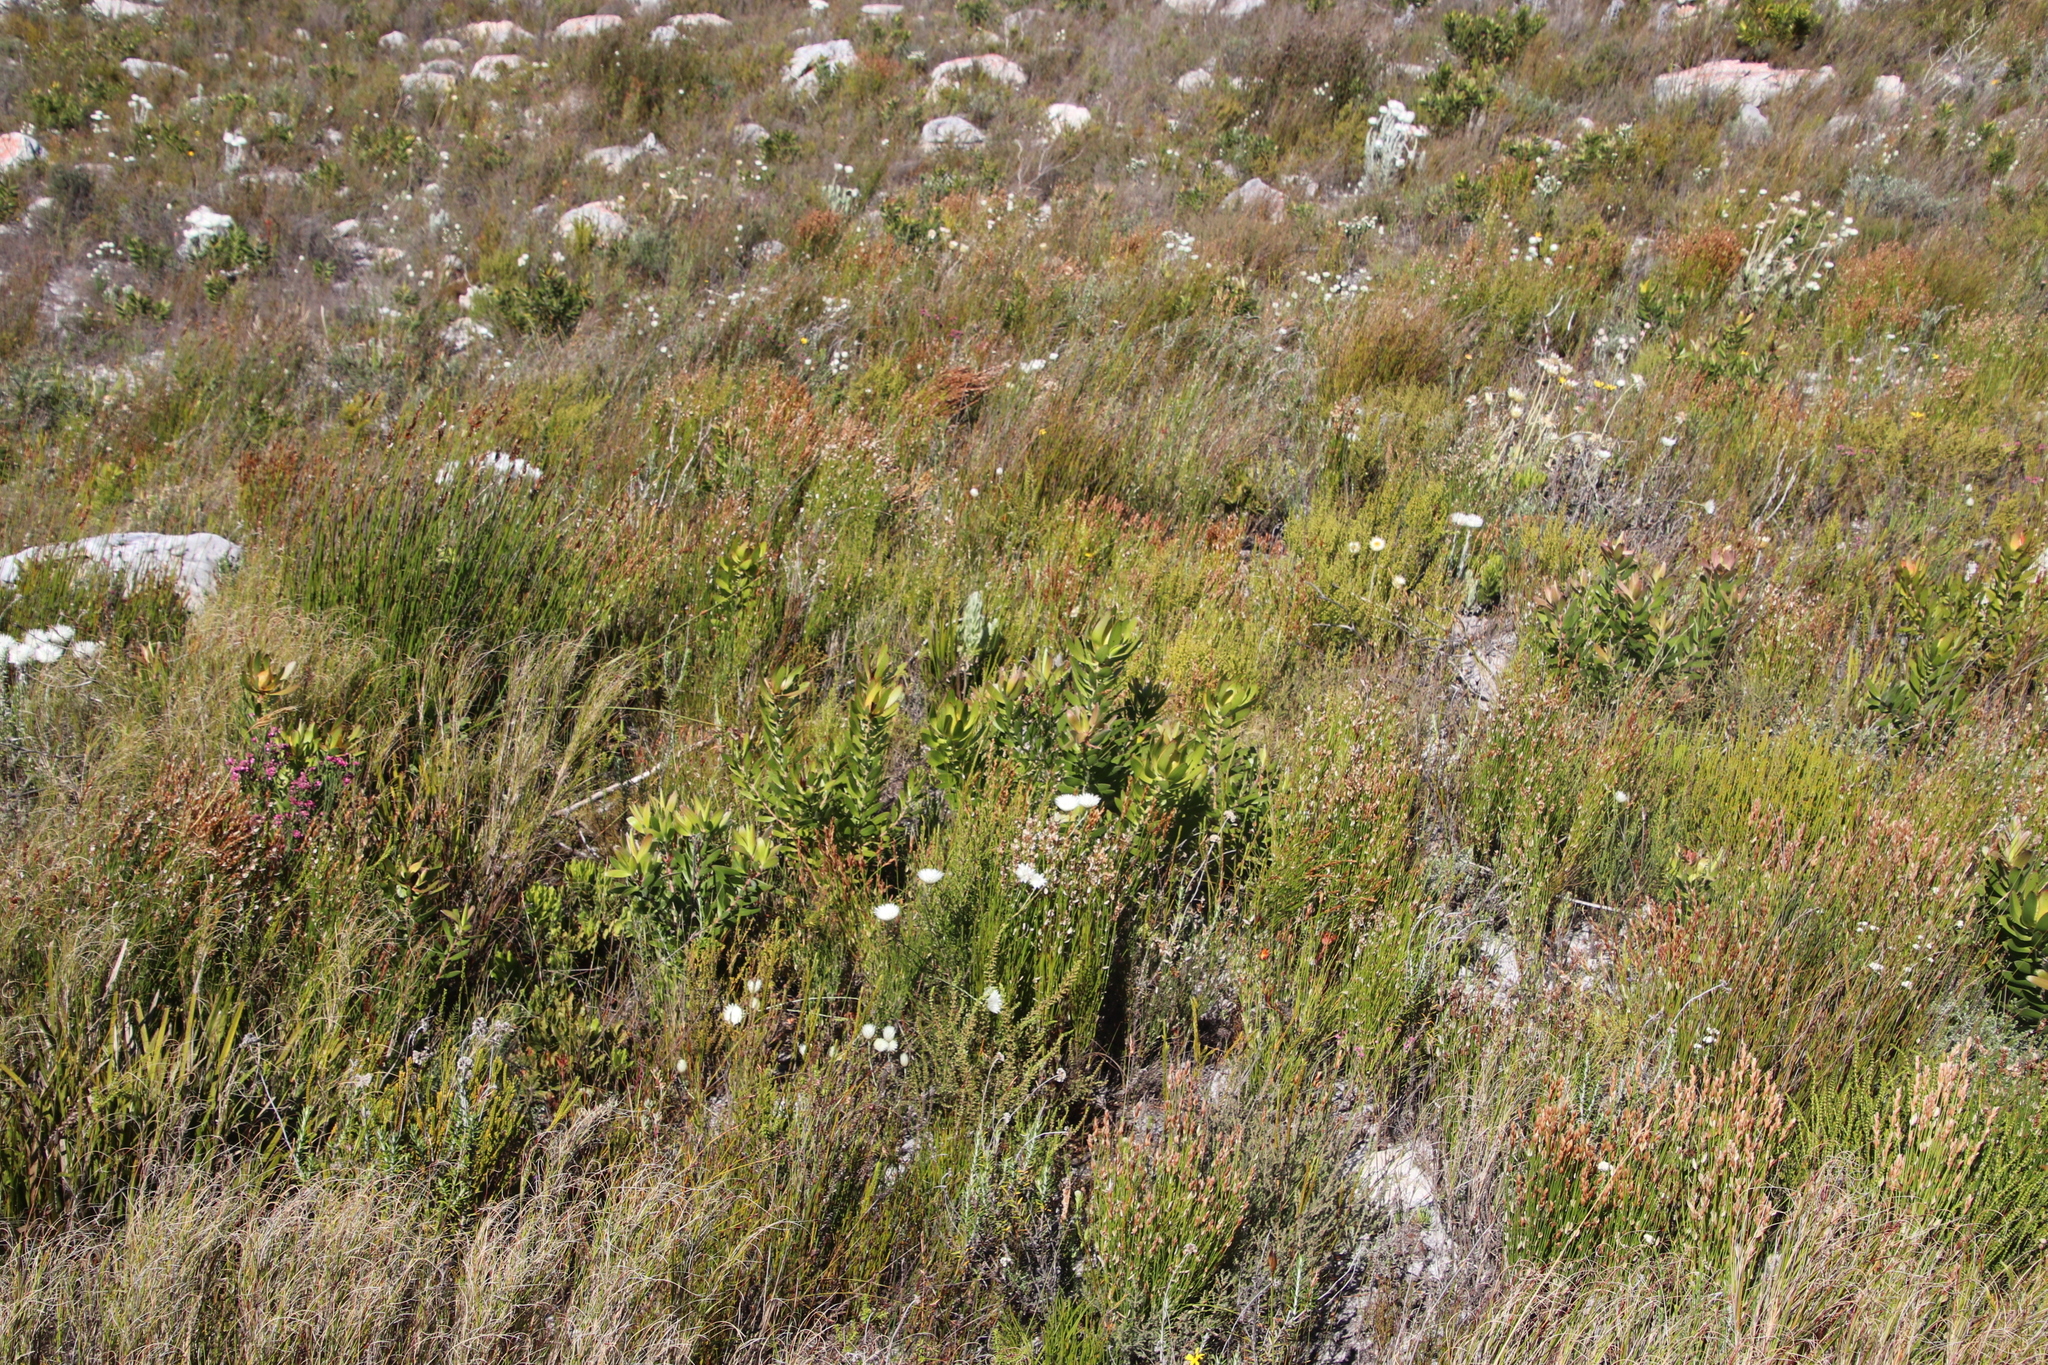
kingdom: Plantae
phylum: Tracheophyta
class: Magnoliopsida
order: Proteales
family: Proteaceae
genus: Leucadendron
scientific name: Leucadendron laureolum
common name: Golden sunshinebush
